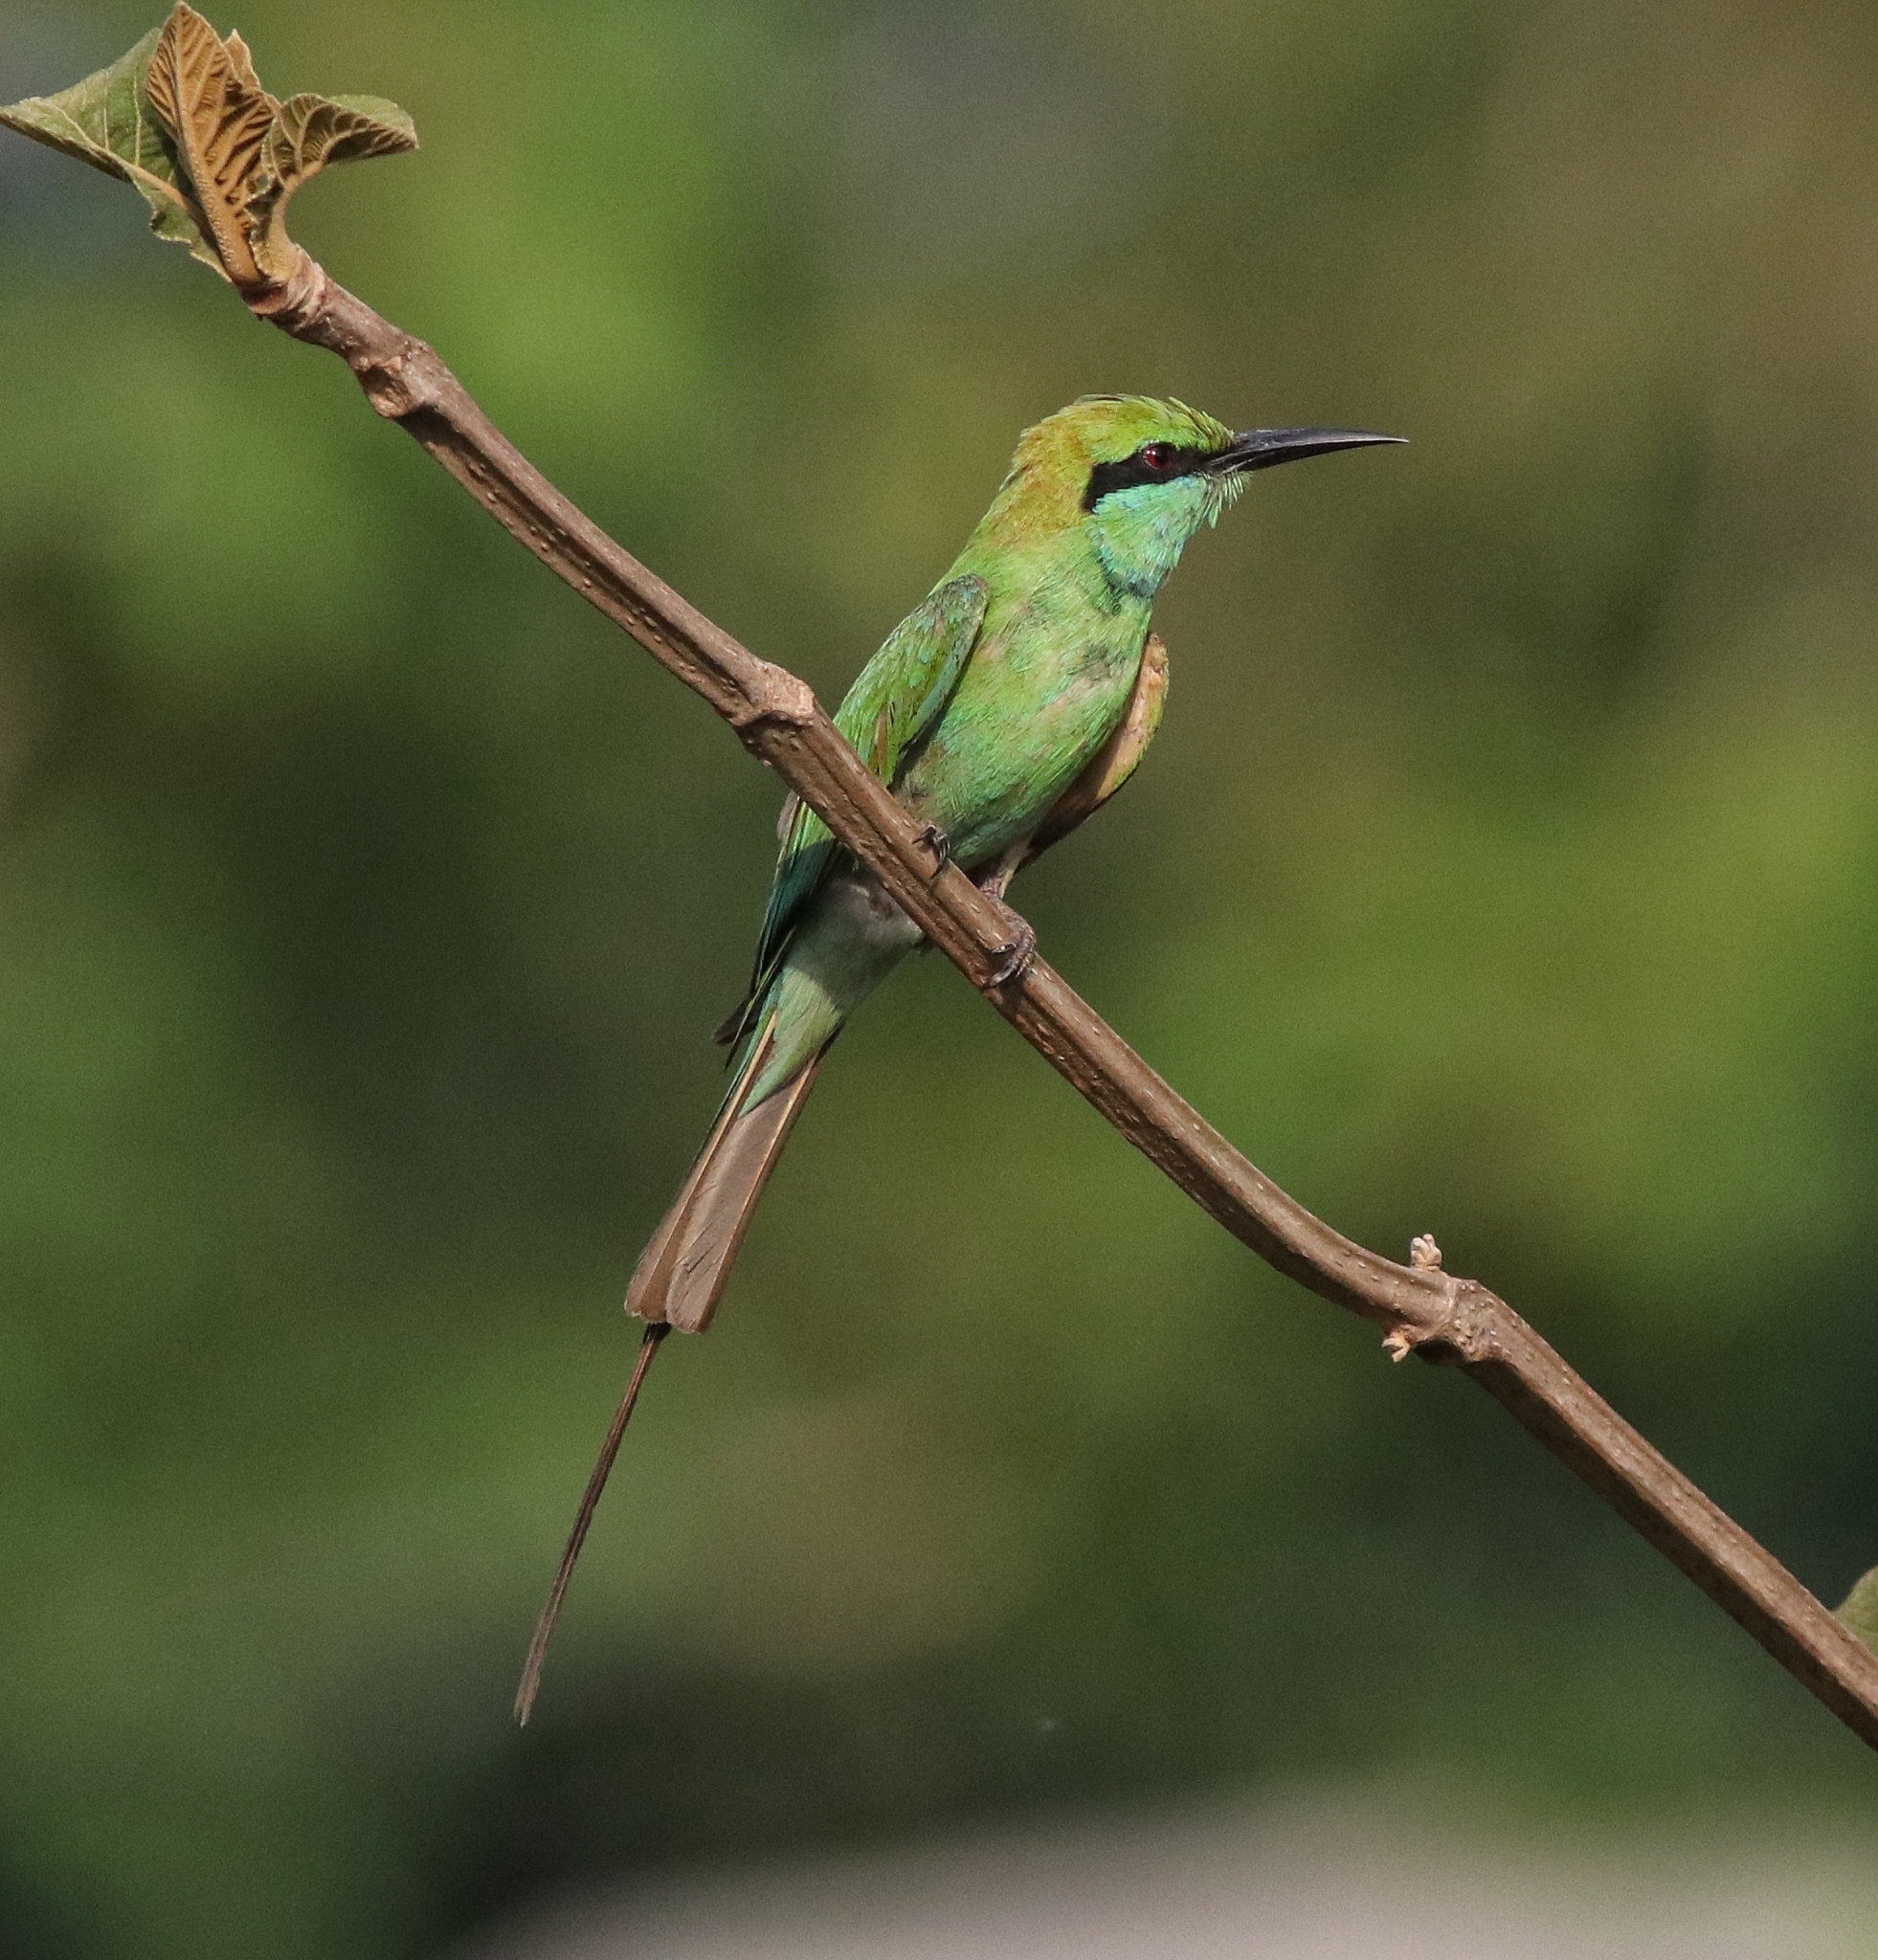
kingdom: Animalia
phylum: Chordata
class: Aves
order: Coraciiformes
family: Meropidae
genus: Merops
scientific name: Merops orientalis
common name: Green bee-eater
